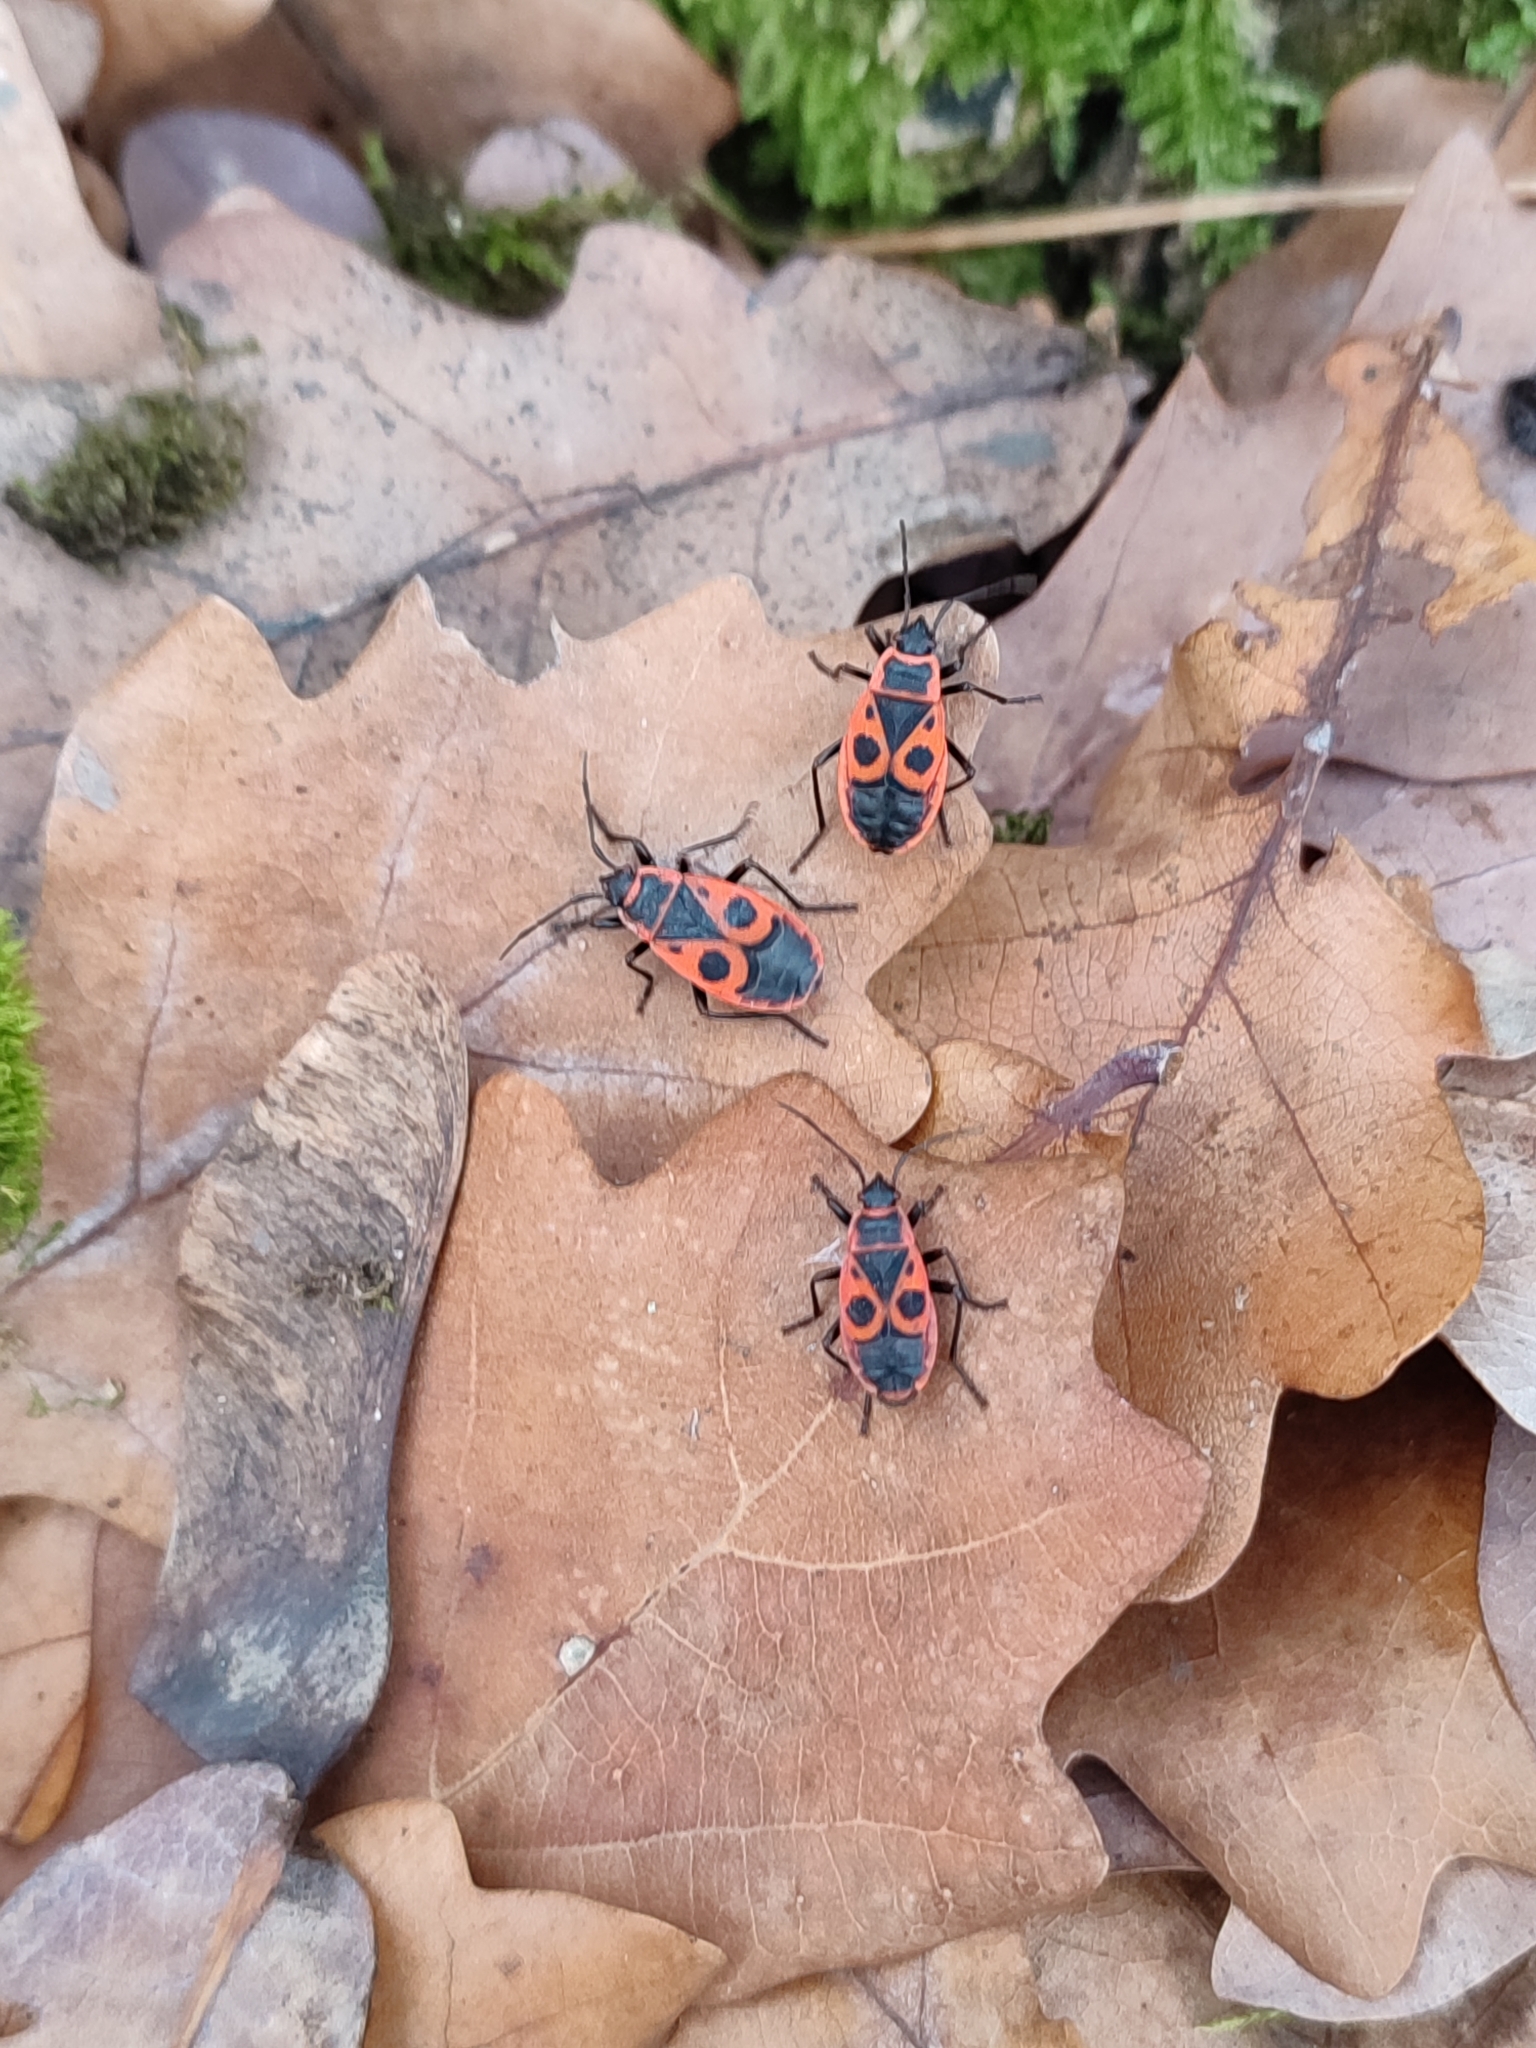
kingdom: Animalia
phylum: Arthropoda
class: Insecta
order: Hemiptera
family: Pyrrhocoridae
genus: Pyrrhocoris
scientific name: Pyrrhocoris apterus
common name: Firebug
